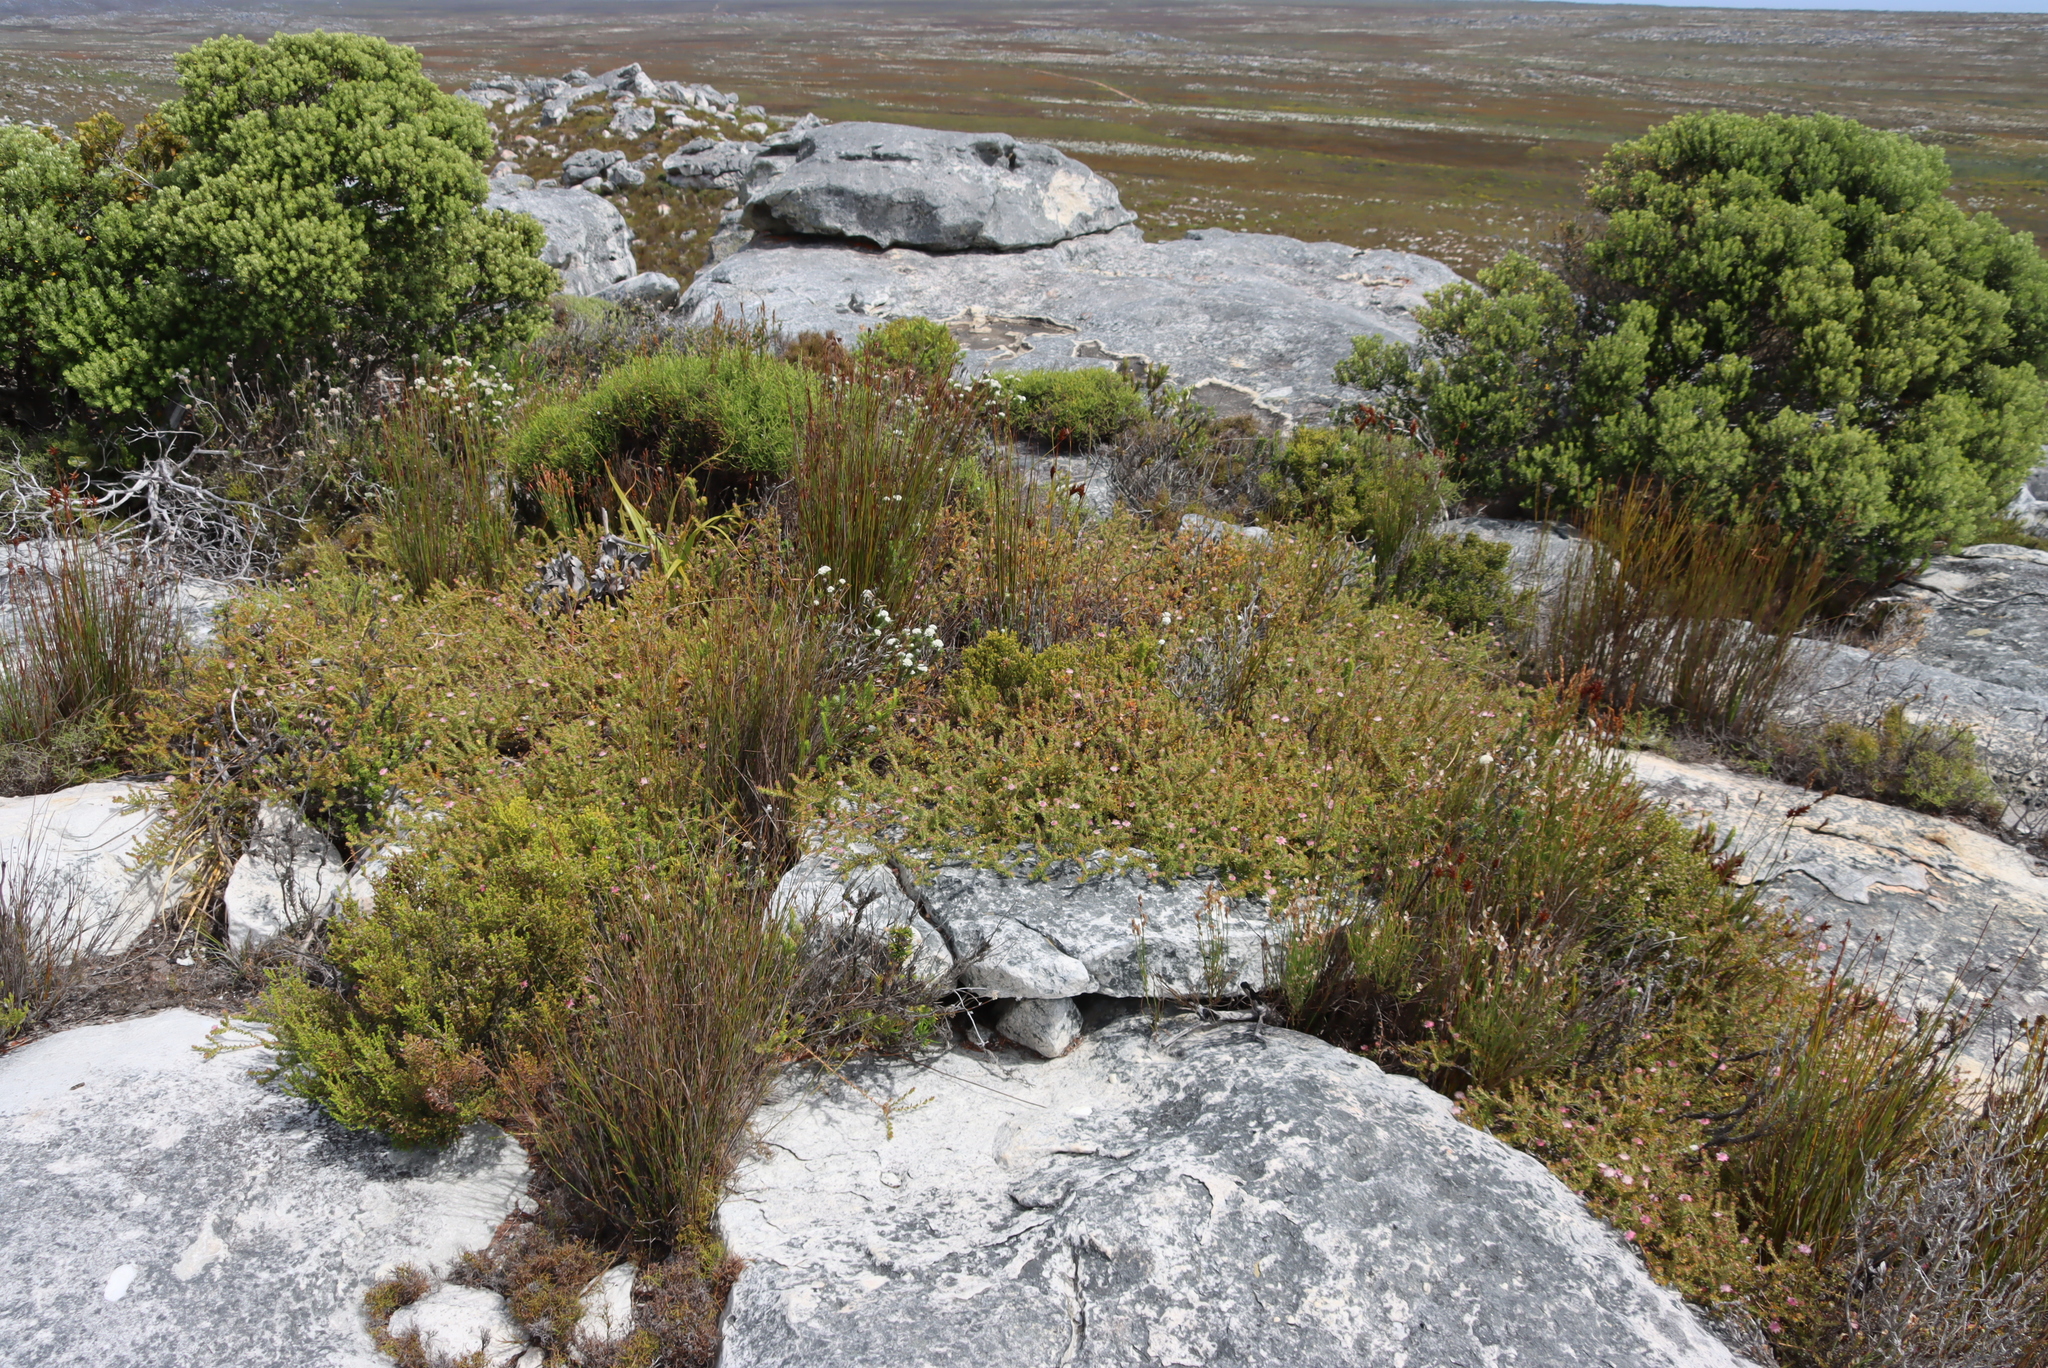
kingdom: Plantae
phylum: Tracheophyta
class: Magnoliopsida
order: Proteales
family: Proteaceae
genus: Diastella
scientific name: Diastella divaricata
